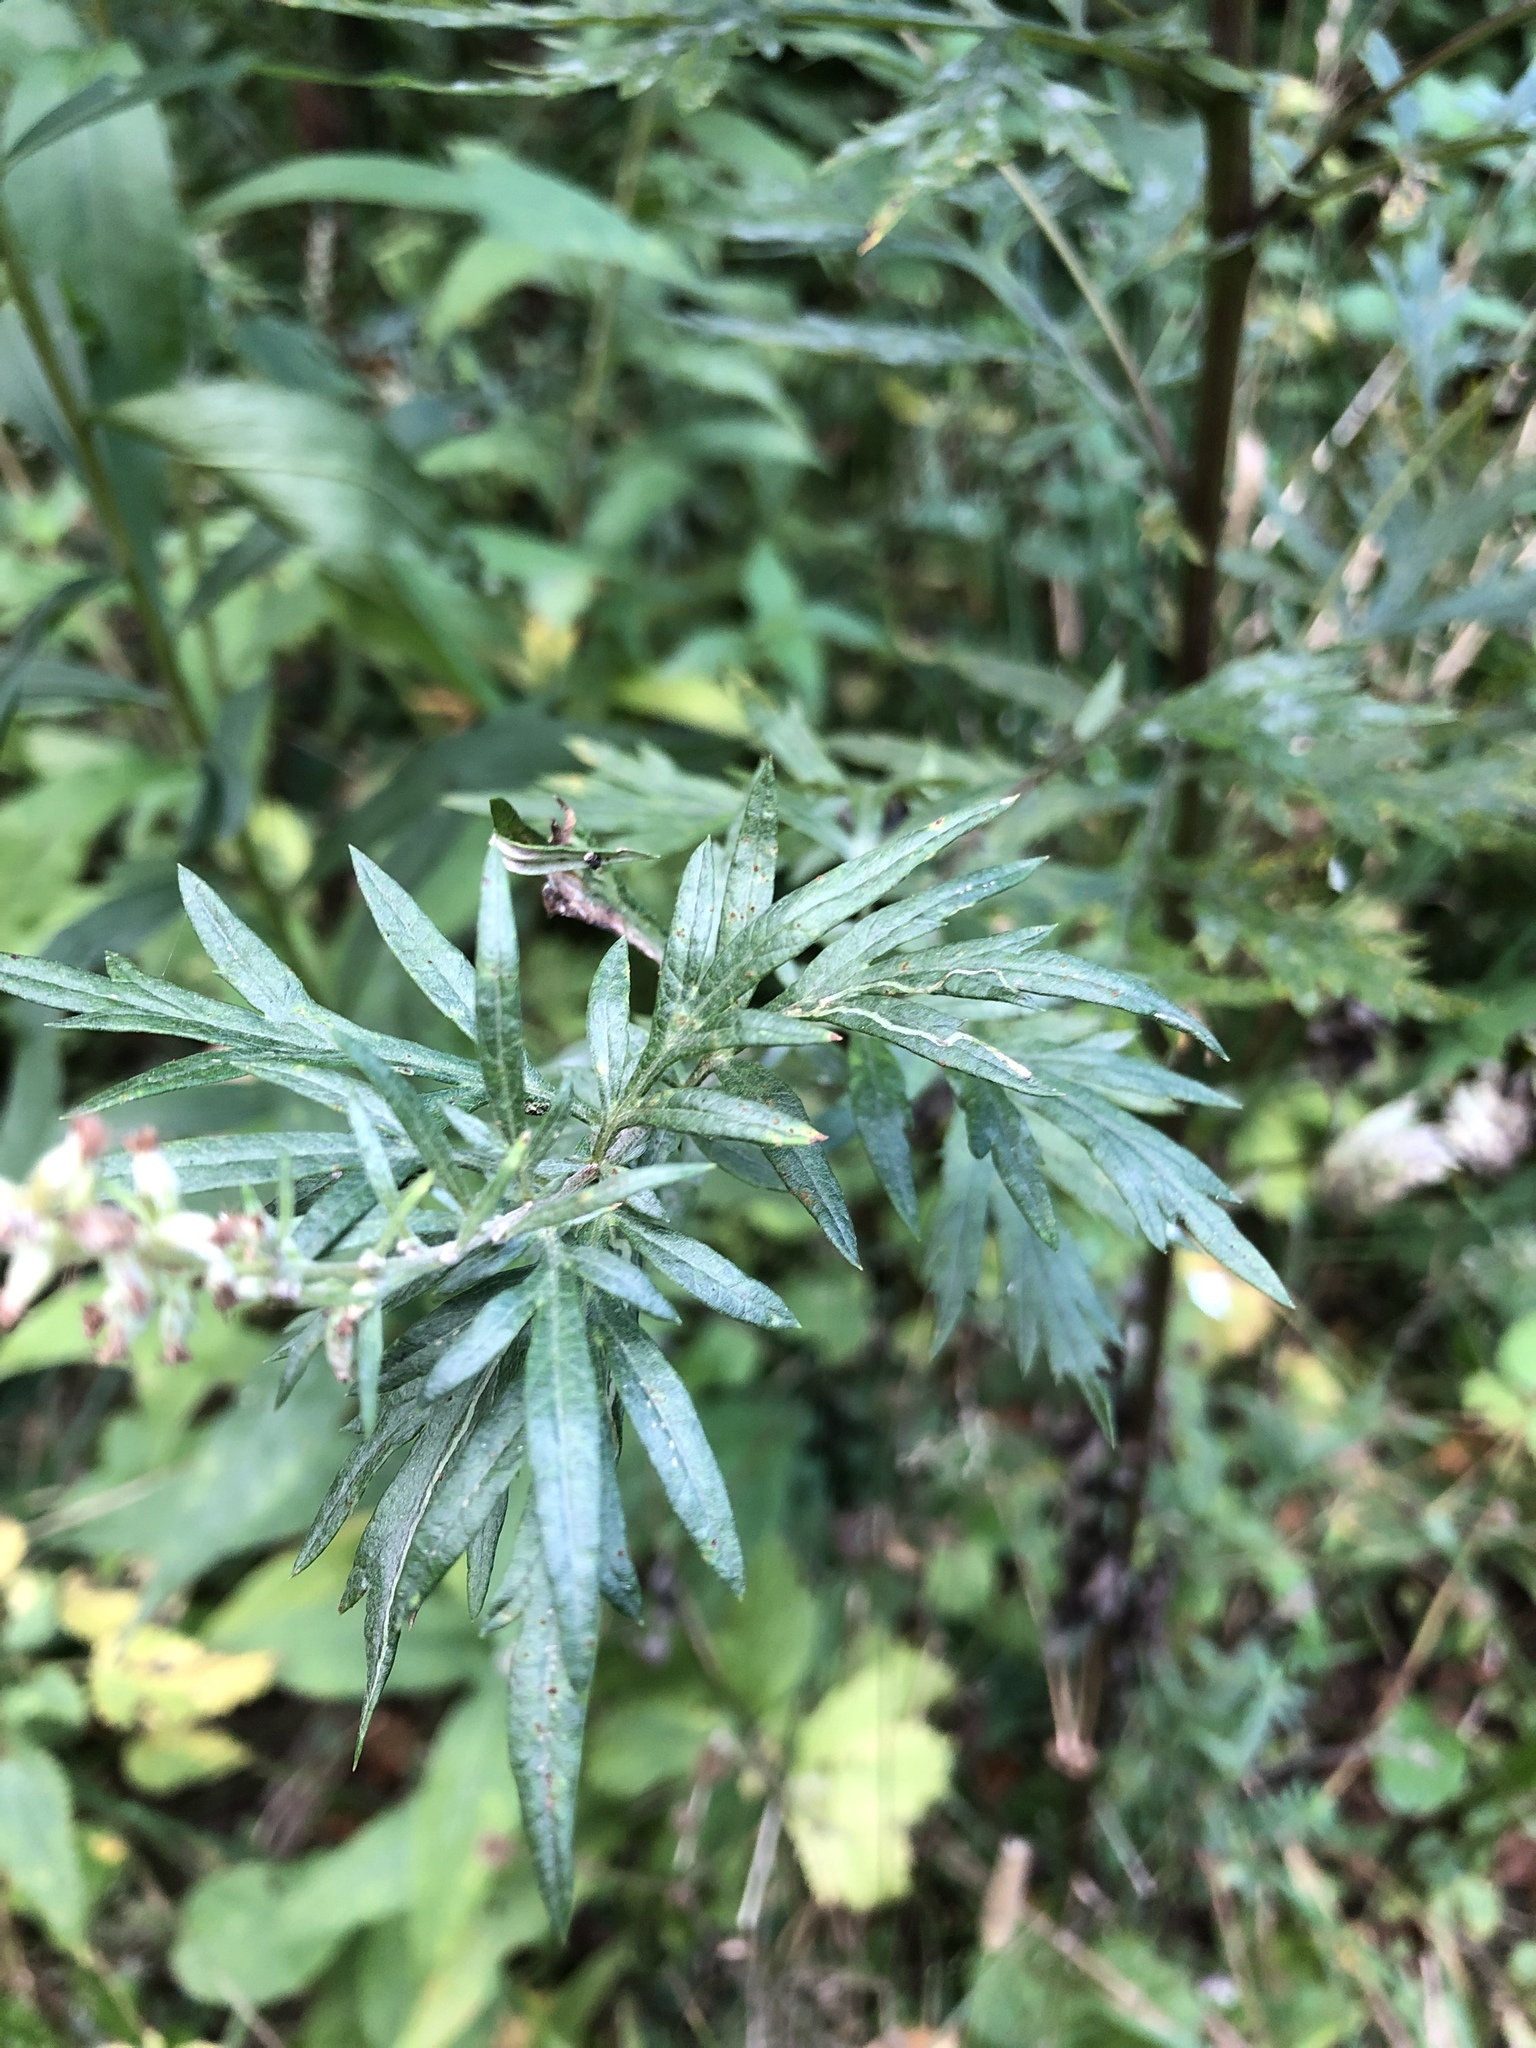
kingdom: Plantae
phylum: Tracheophyta
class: Magnoliopsida
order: Asterales
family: Asteraceae
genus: Artemisia
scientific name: Artemisia vulgaris
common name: Mugwort
